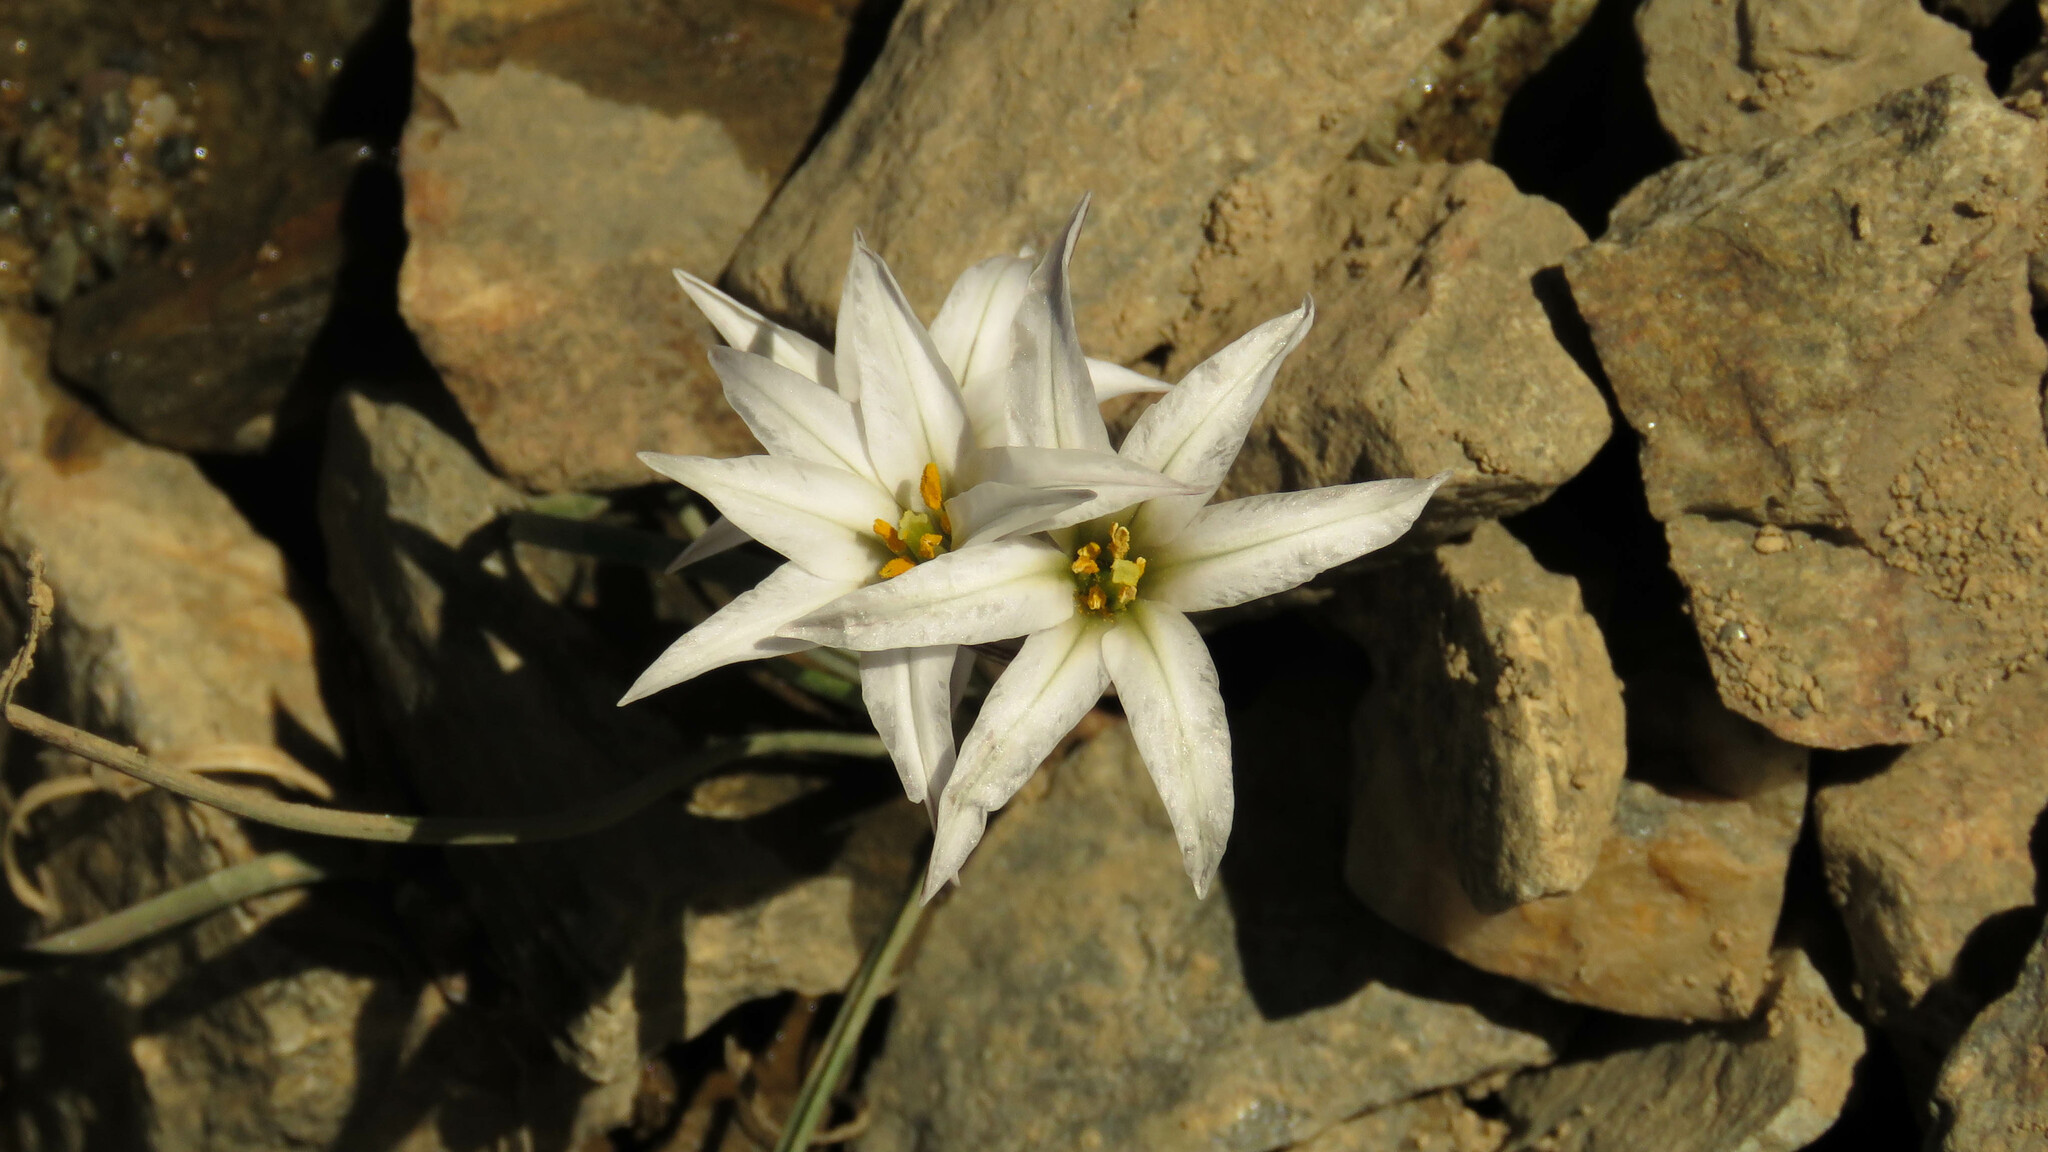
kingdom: Plantae
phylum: Tracheophyta
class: Liliopsida
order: Asparagales
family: Amaryllidaceae
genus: Tristagma
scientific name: Tristagma patagonicum
